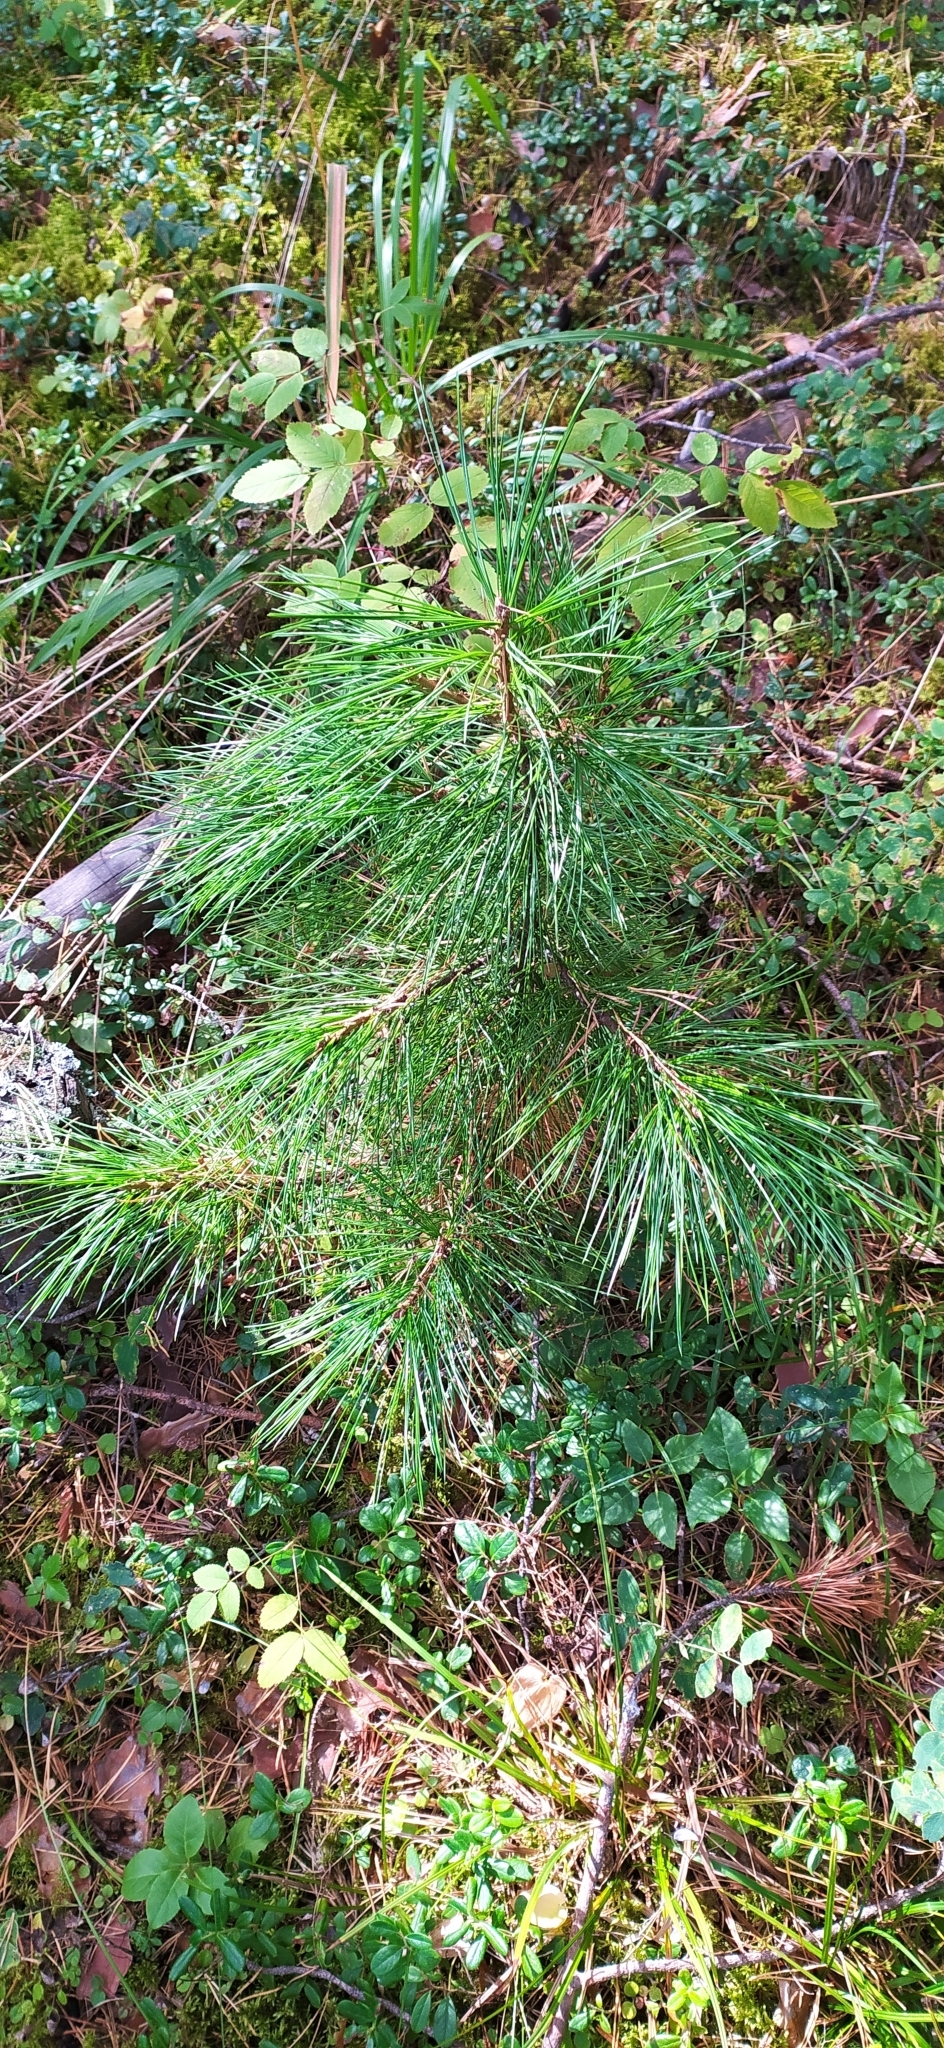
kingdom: Plantae
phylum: Tracheophyta
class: Pinopsida
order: Pinales
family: Pinaceae
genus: Pinus
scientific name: Pinus sibirica
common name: Siberian pine
